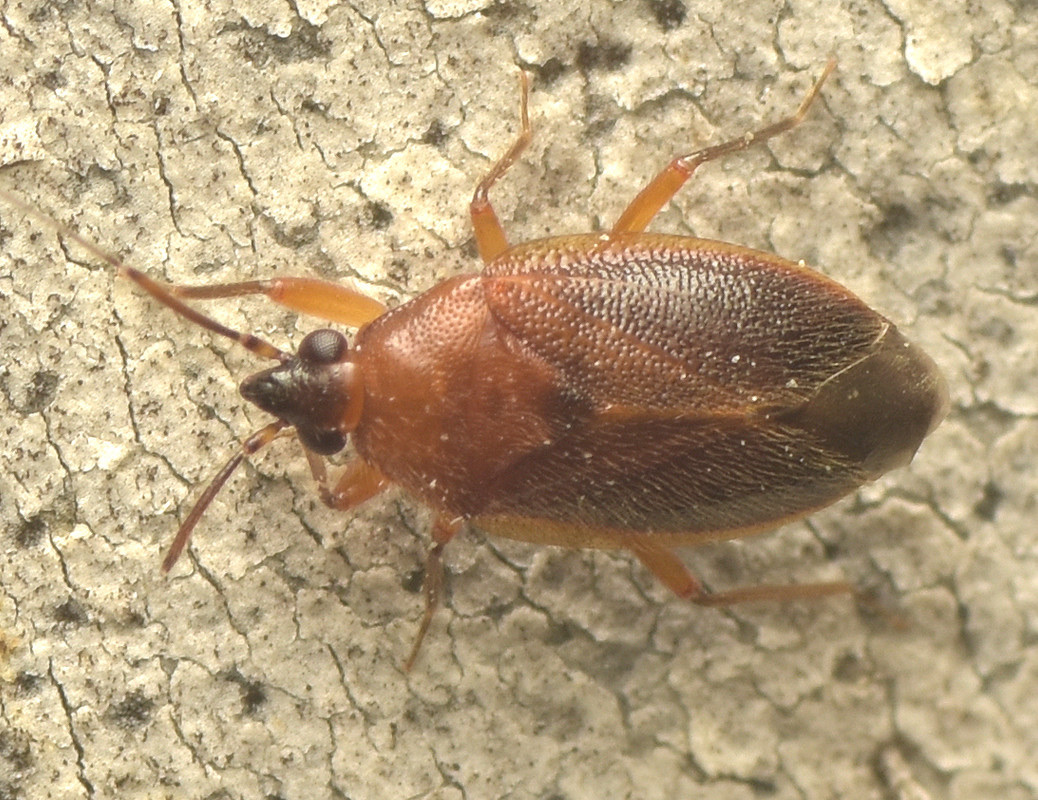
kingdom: Animalia
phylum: Arthropoda
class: Insecta
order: Hemiptera
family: Miridae
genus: Lygaeoscytus
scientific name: Lygaeoscytus cimicoides
